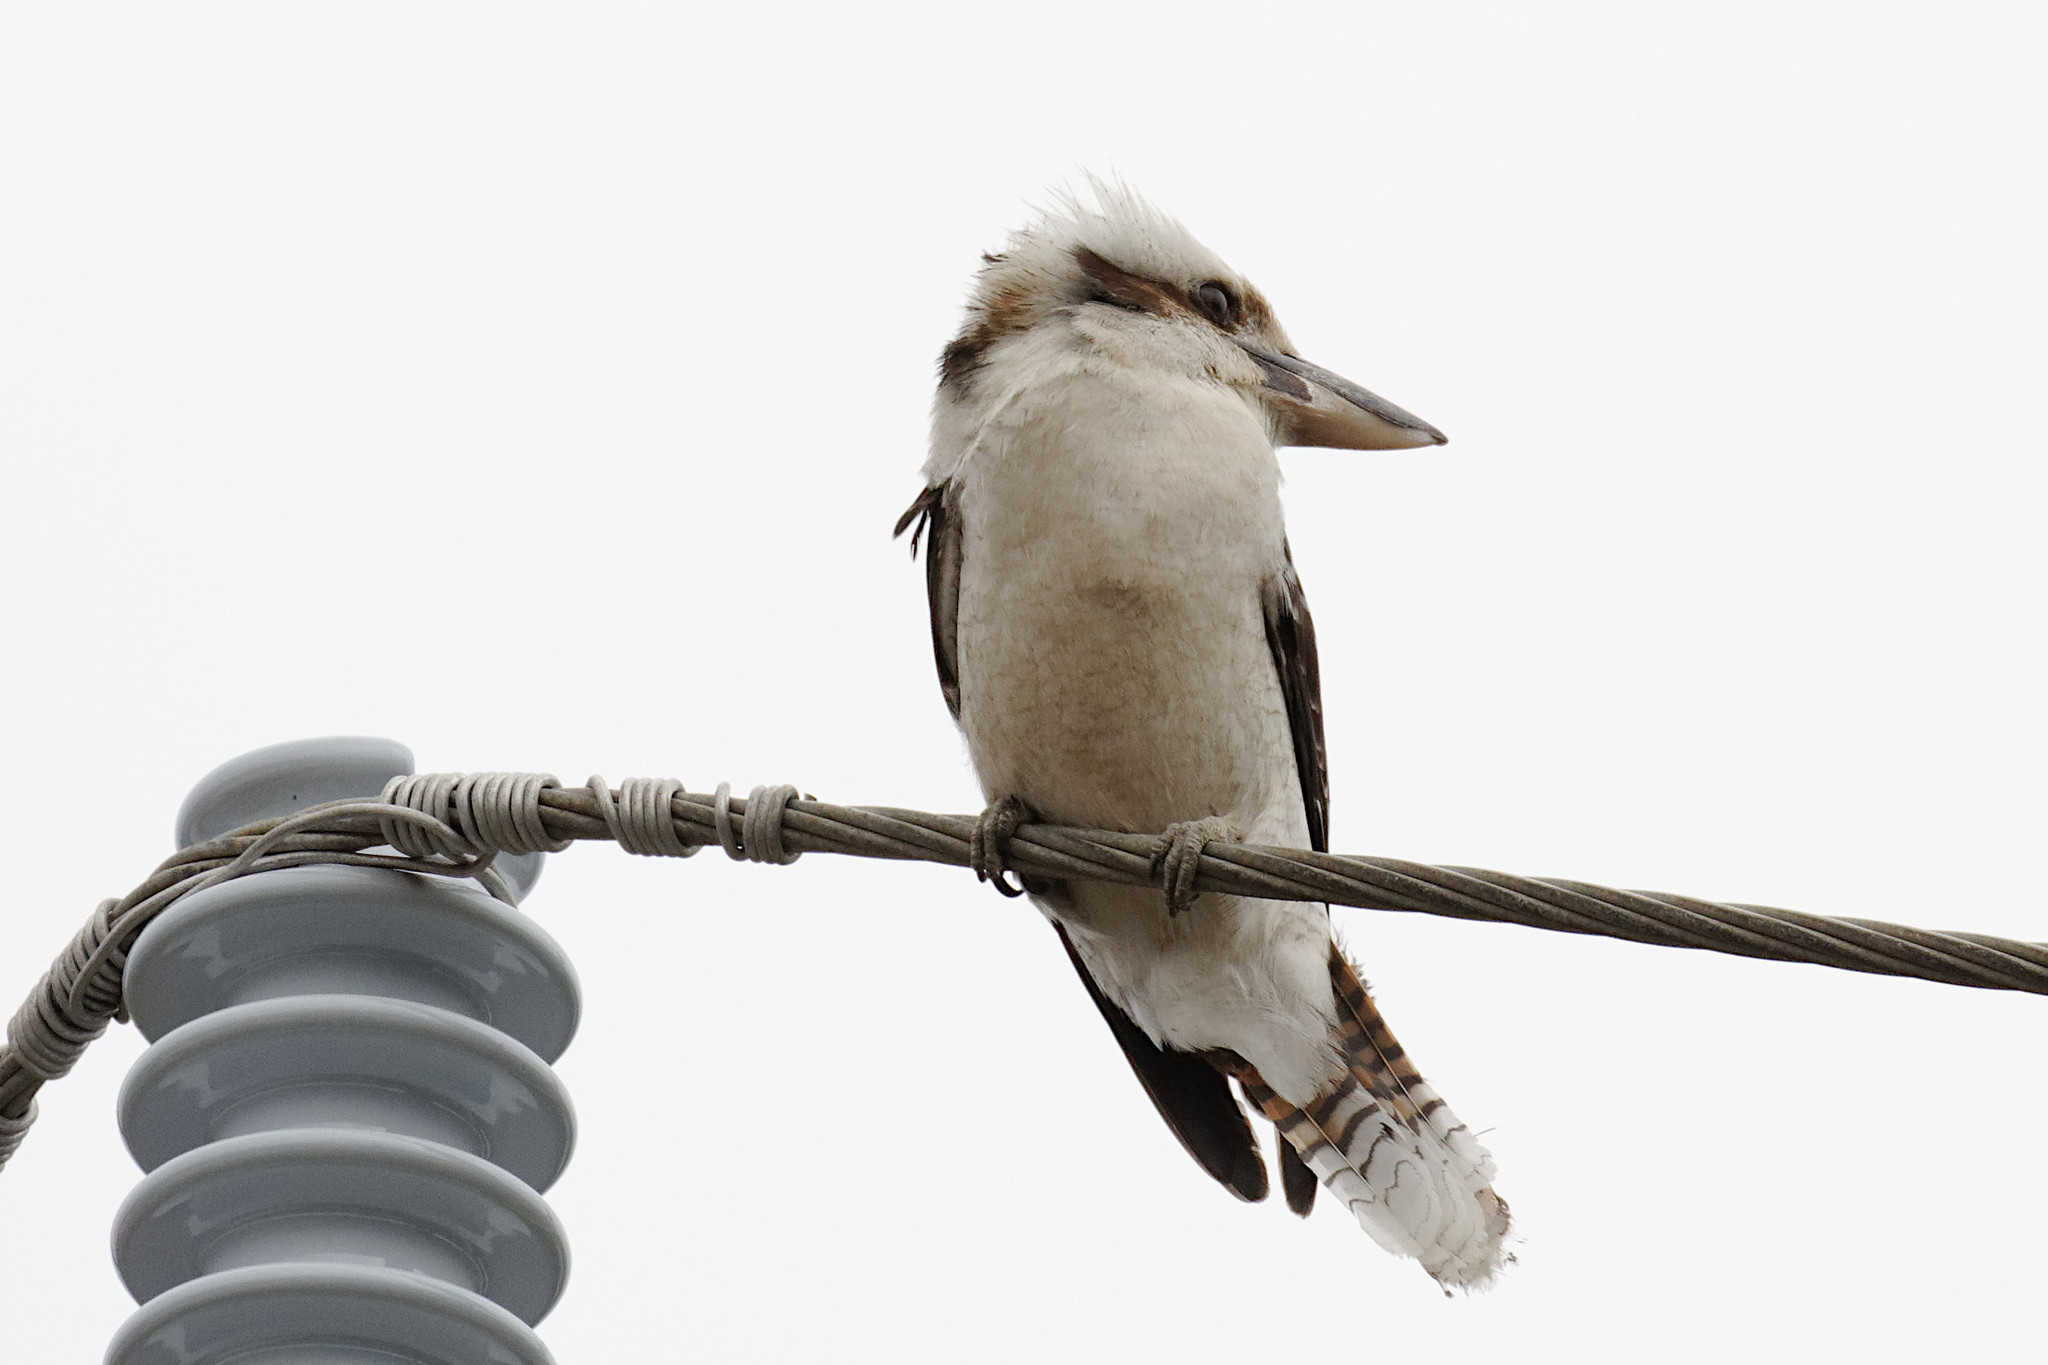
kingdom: Animalia
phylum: Chordata
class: Aves
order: Coraciiformes
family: Alcedinidae
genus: Dacelo
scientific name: Dacelo novaeguineae
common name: Laughing kookaburra
